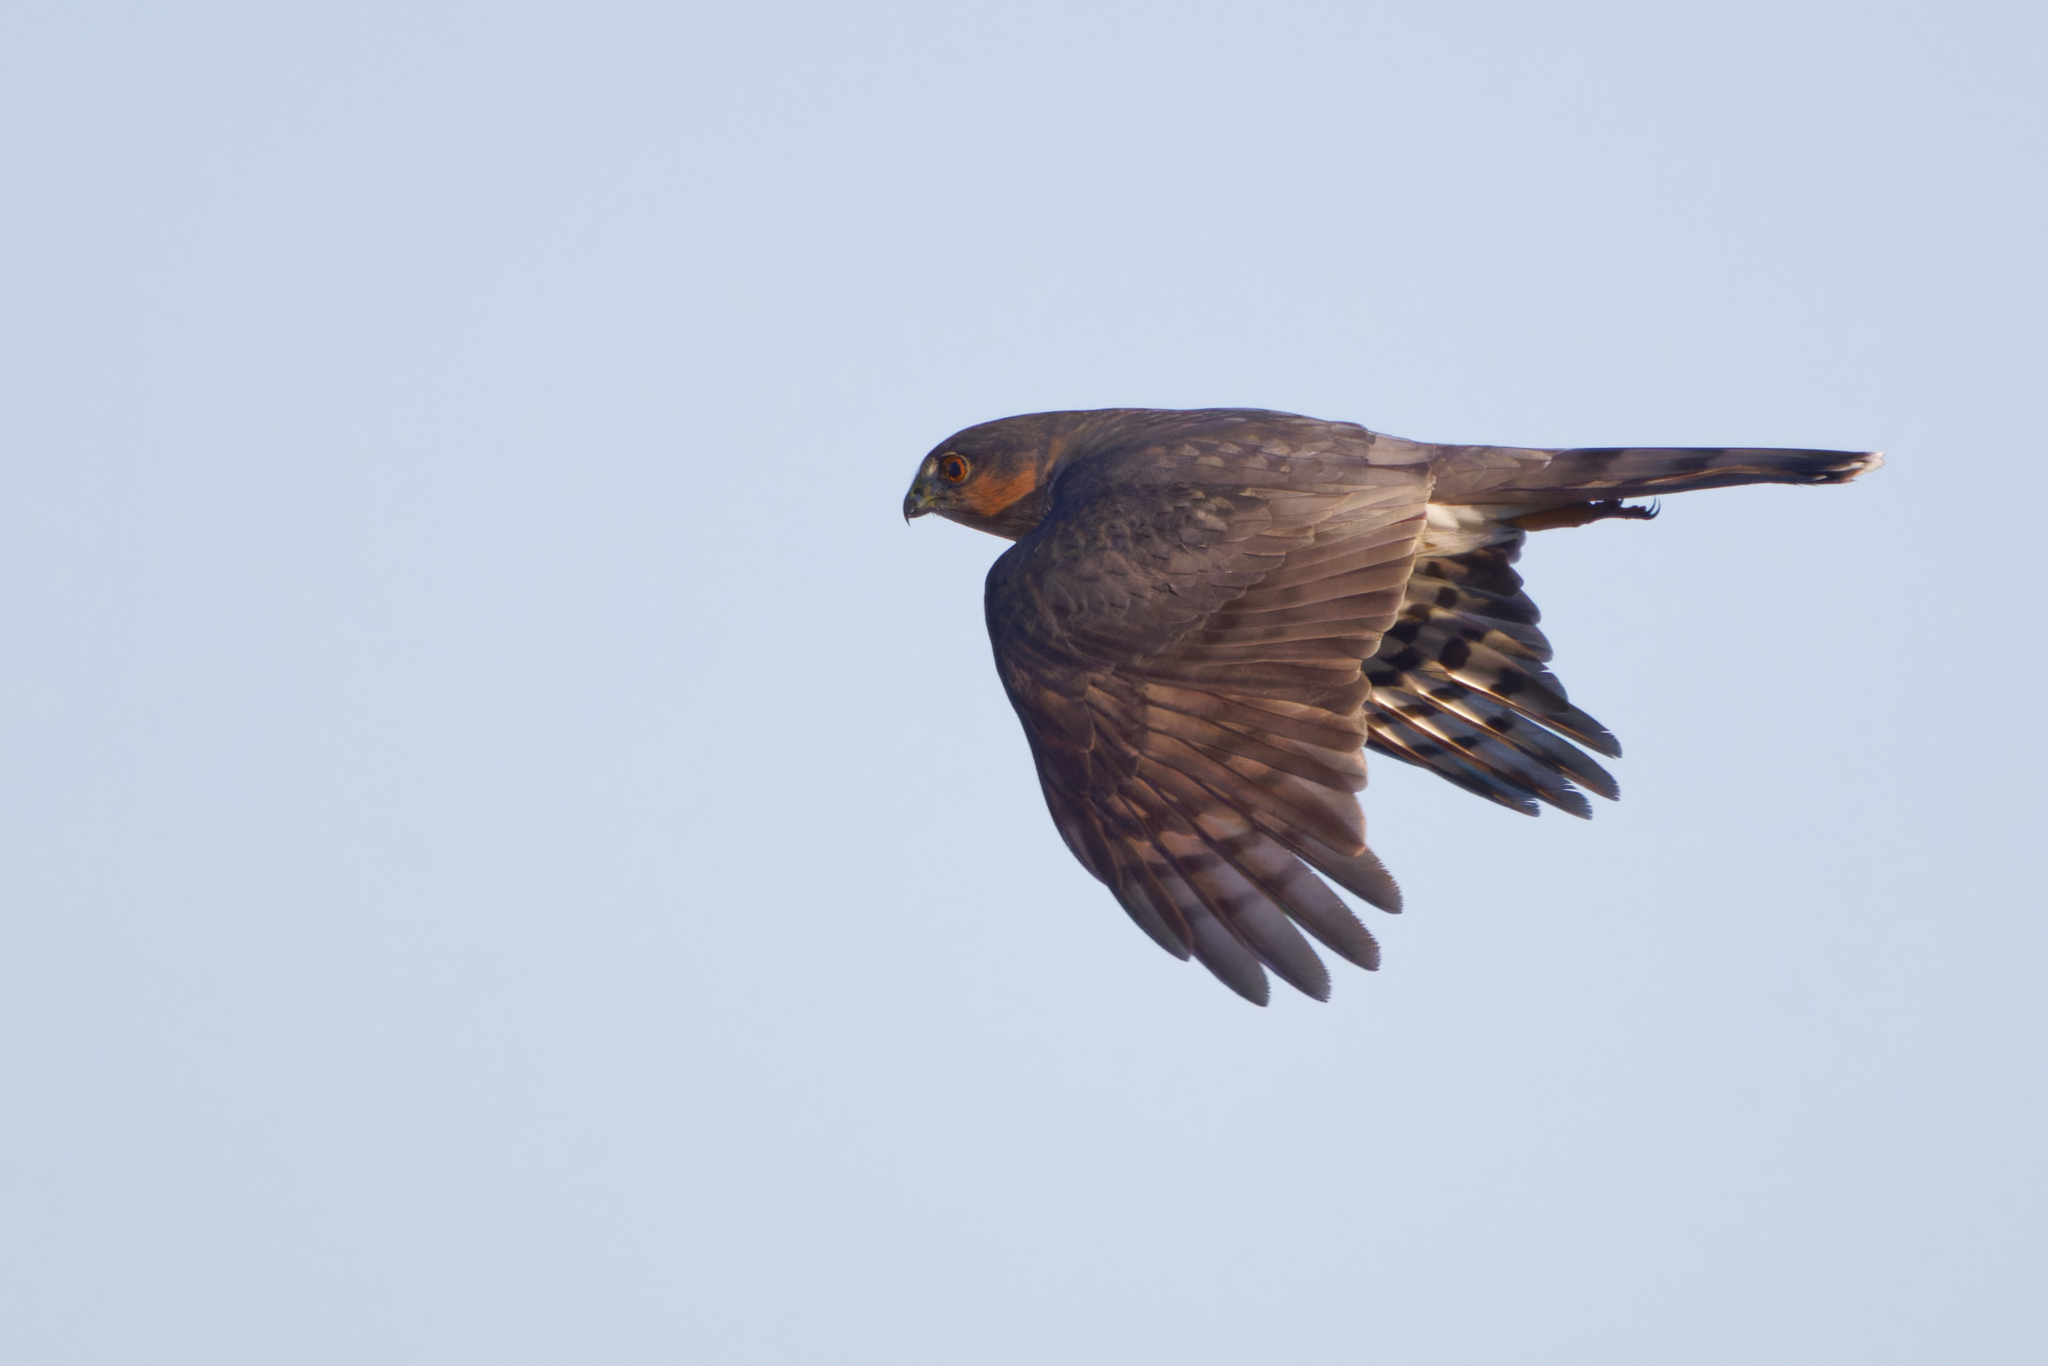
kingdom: Animalia
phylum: Chordata
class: Aves
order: Accipitriformes
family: Accipitridae
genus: Accipiter
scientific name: Accipiter striatus
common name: Sharp-shinned hawk
